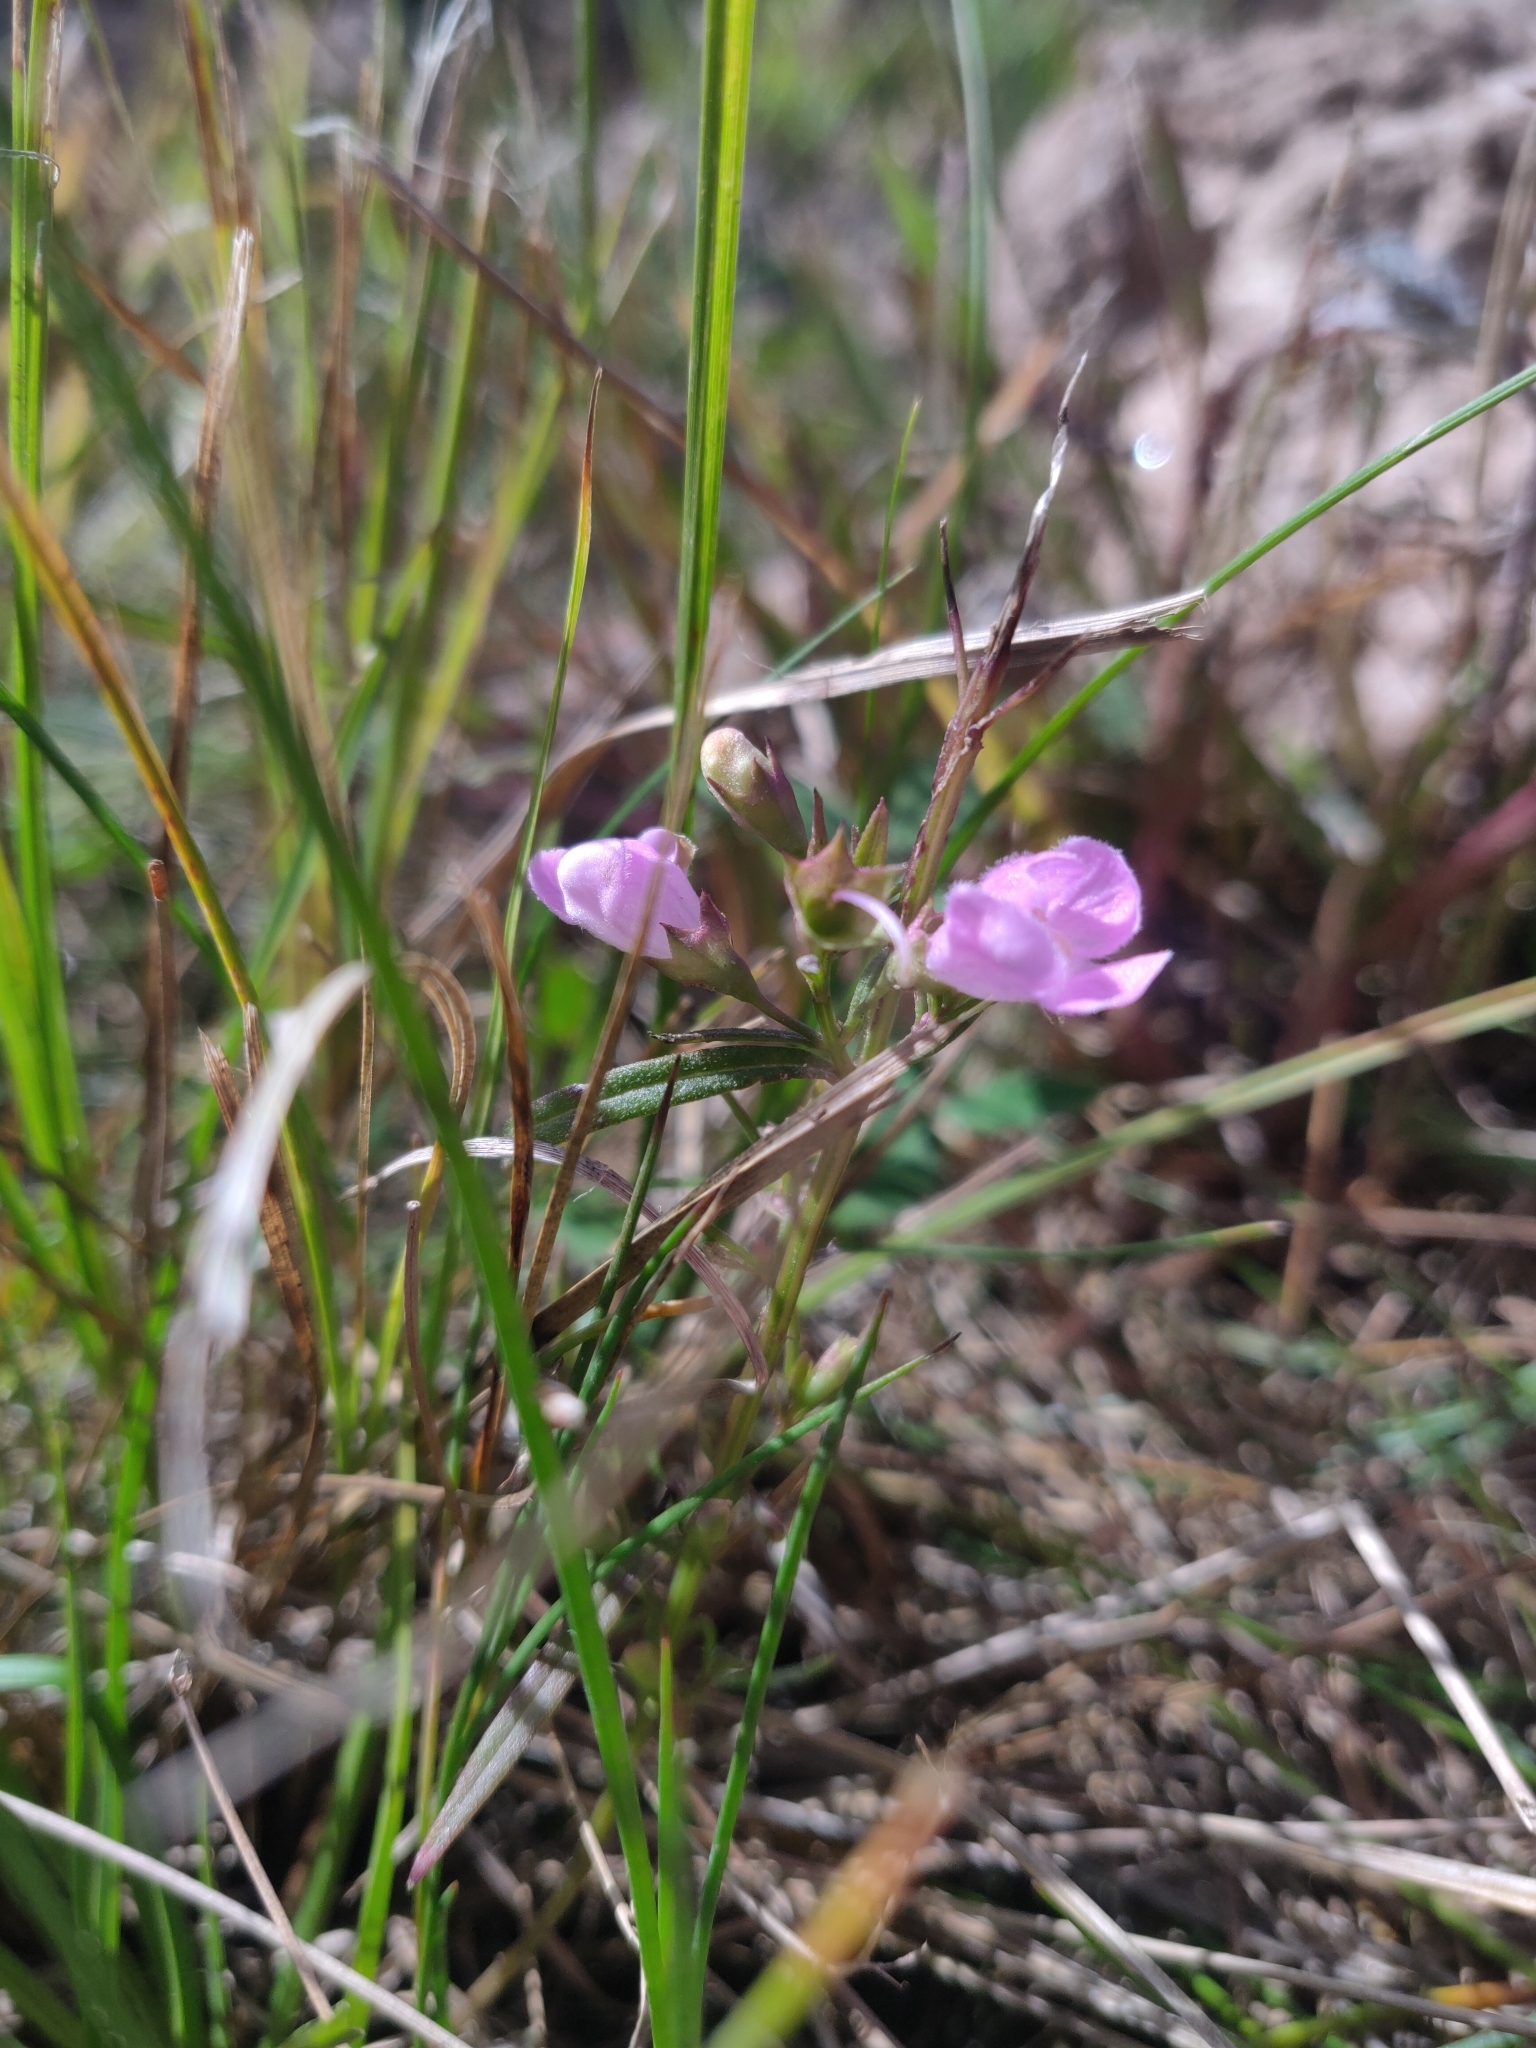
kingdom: Plantae
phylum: Tracheophyta
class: Magnoliopsida
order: Lamiales
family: Orobanchaceae
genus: Agalinis
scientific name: Agalinis tenuifolia
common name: Slender agalinis
